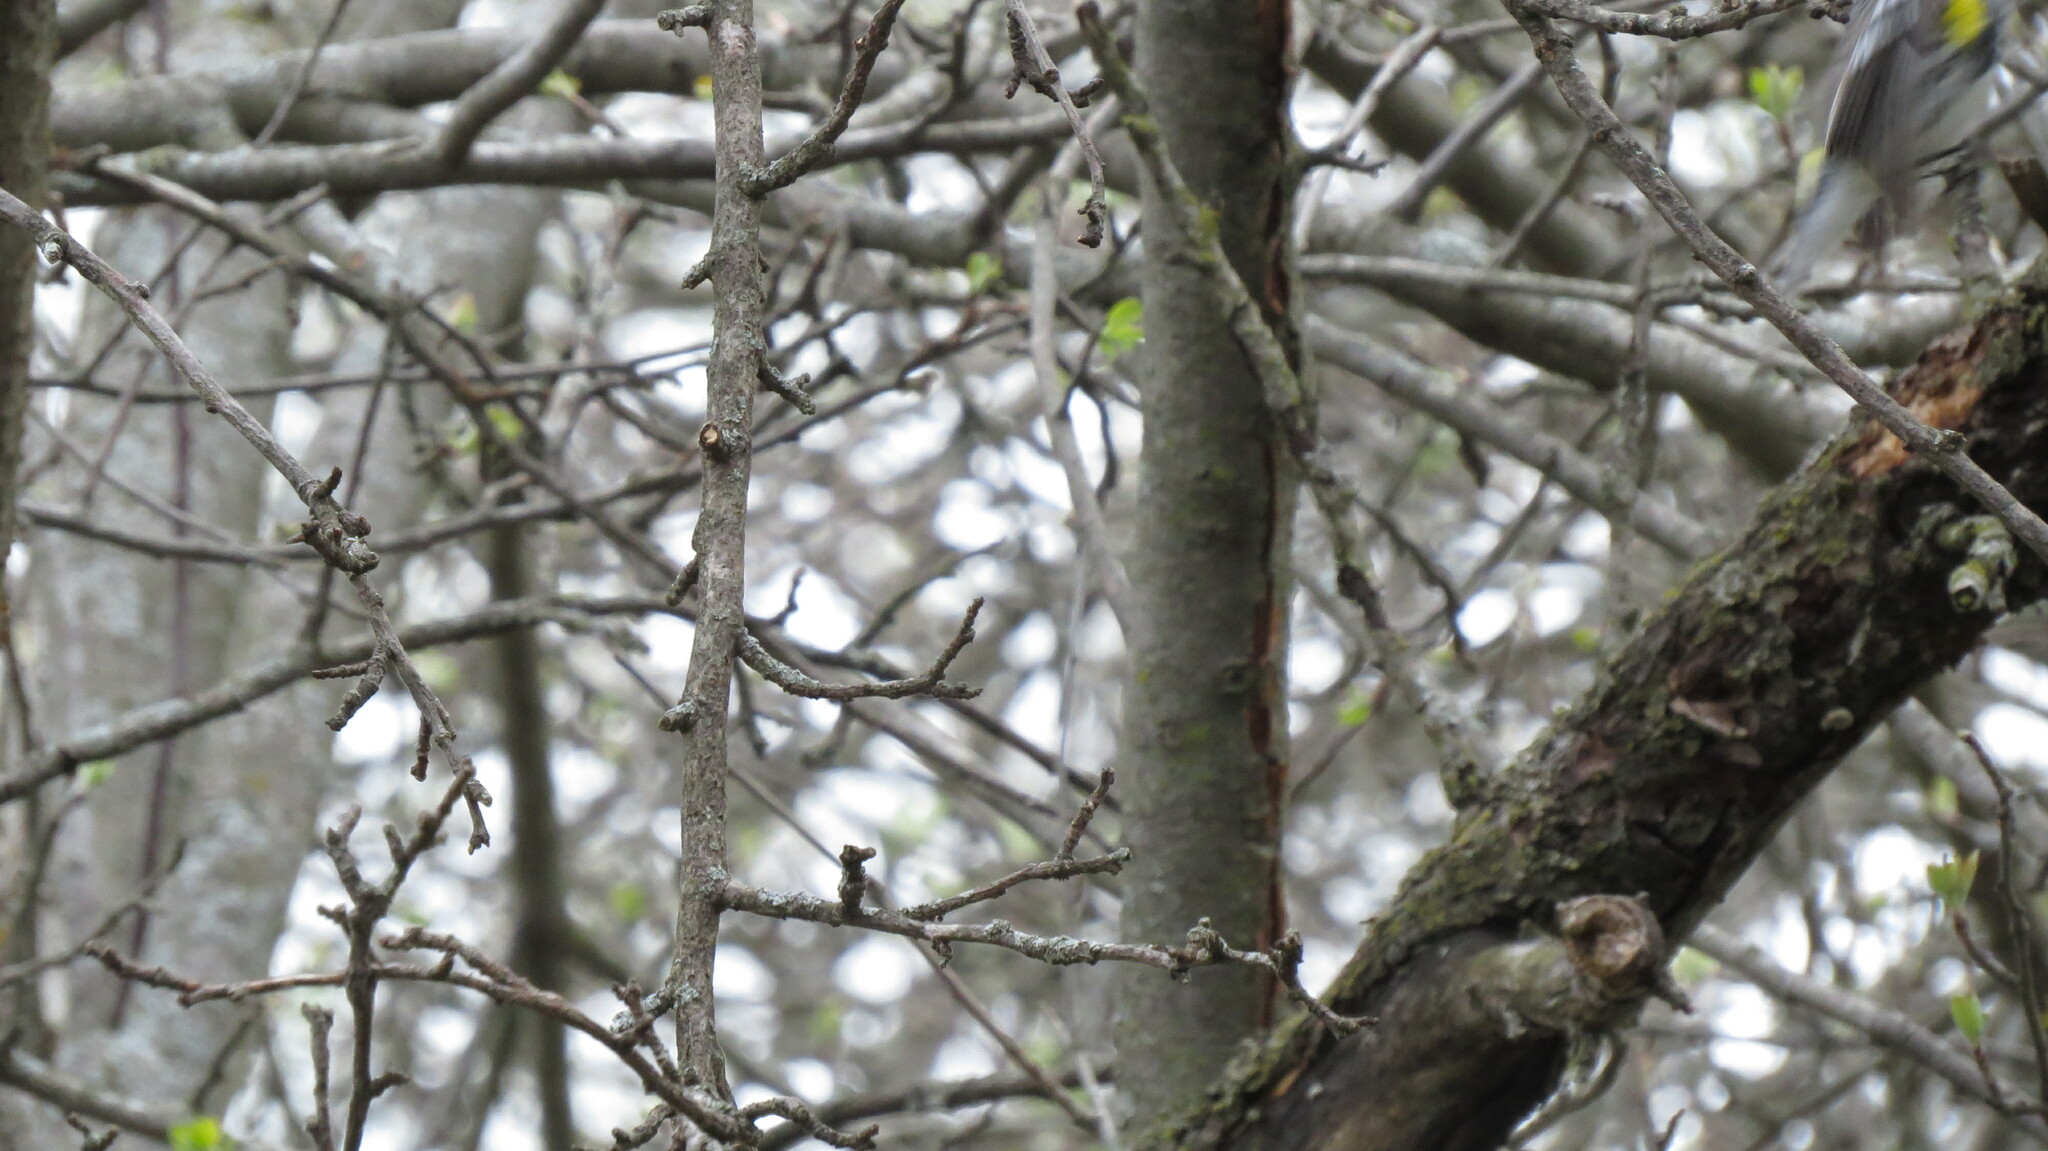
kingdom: Animalia
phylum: Chordata
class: Aves
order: Passeriformes
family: Parulidae
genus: Setophaga
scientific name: Setophaga coronata
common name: Myrtle warbler
